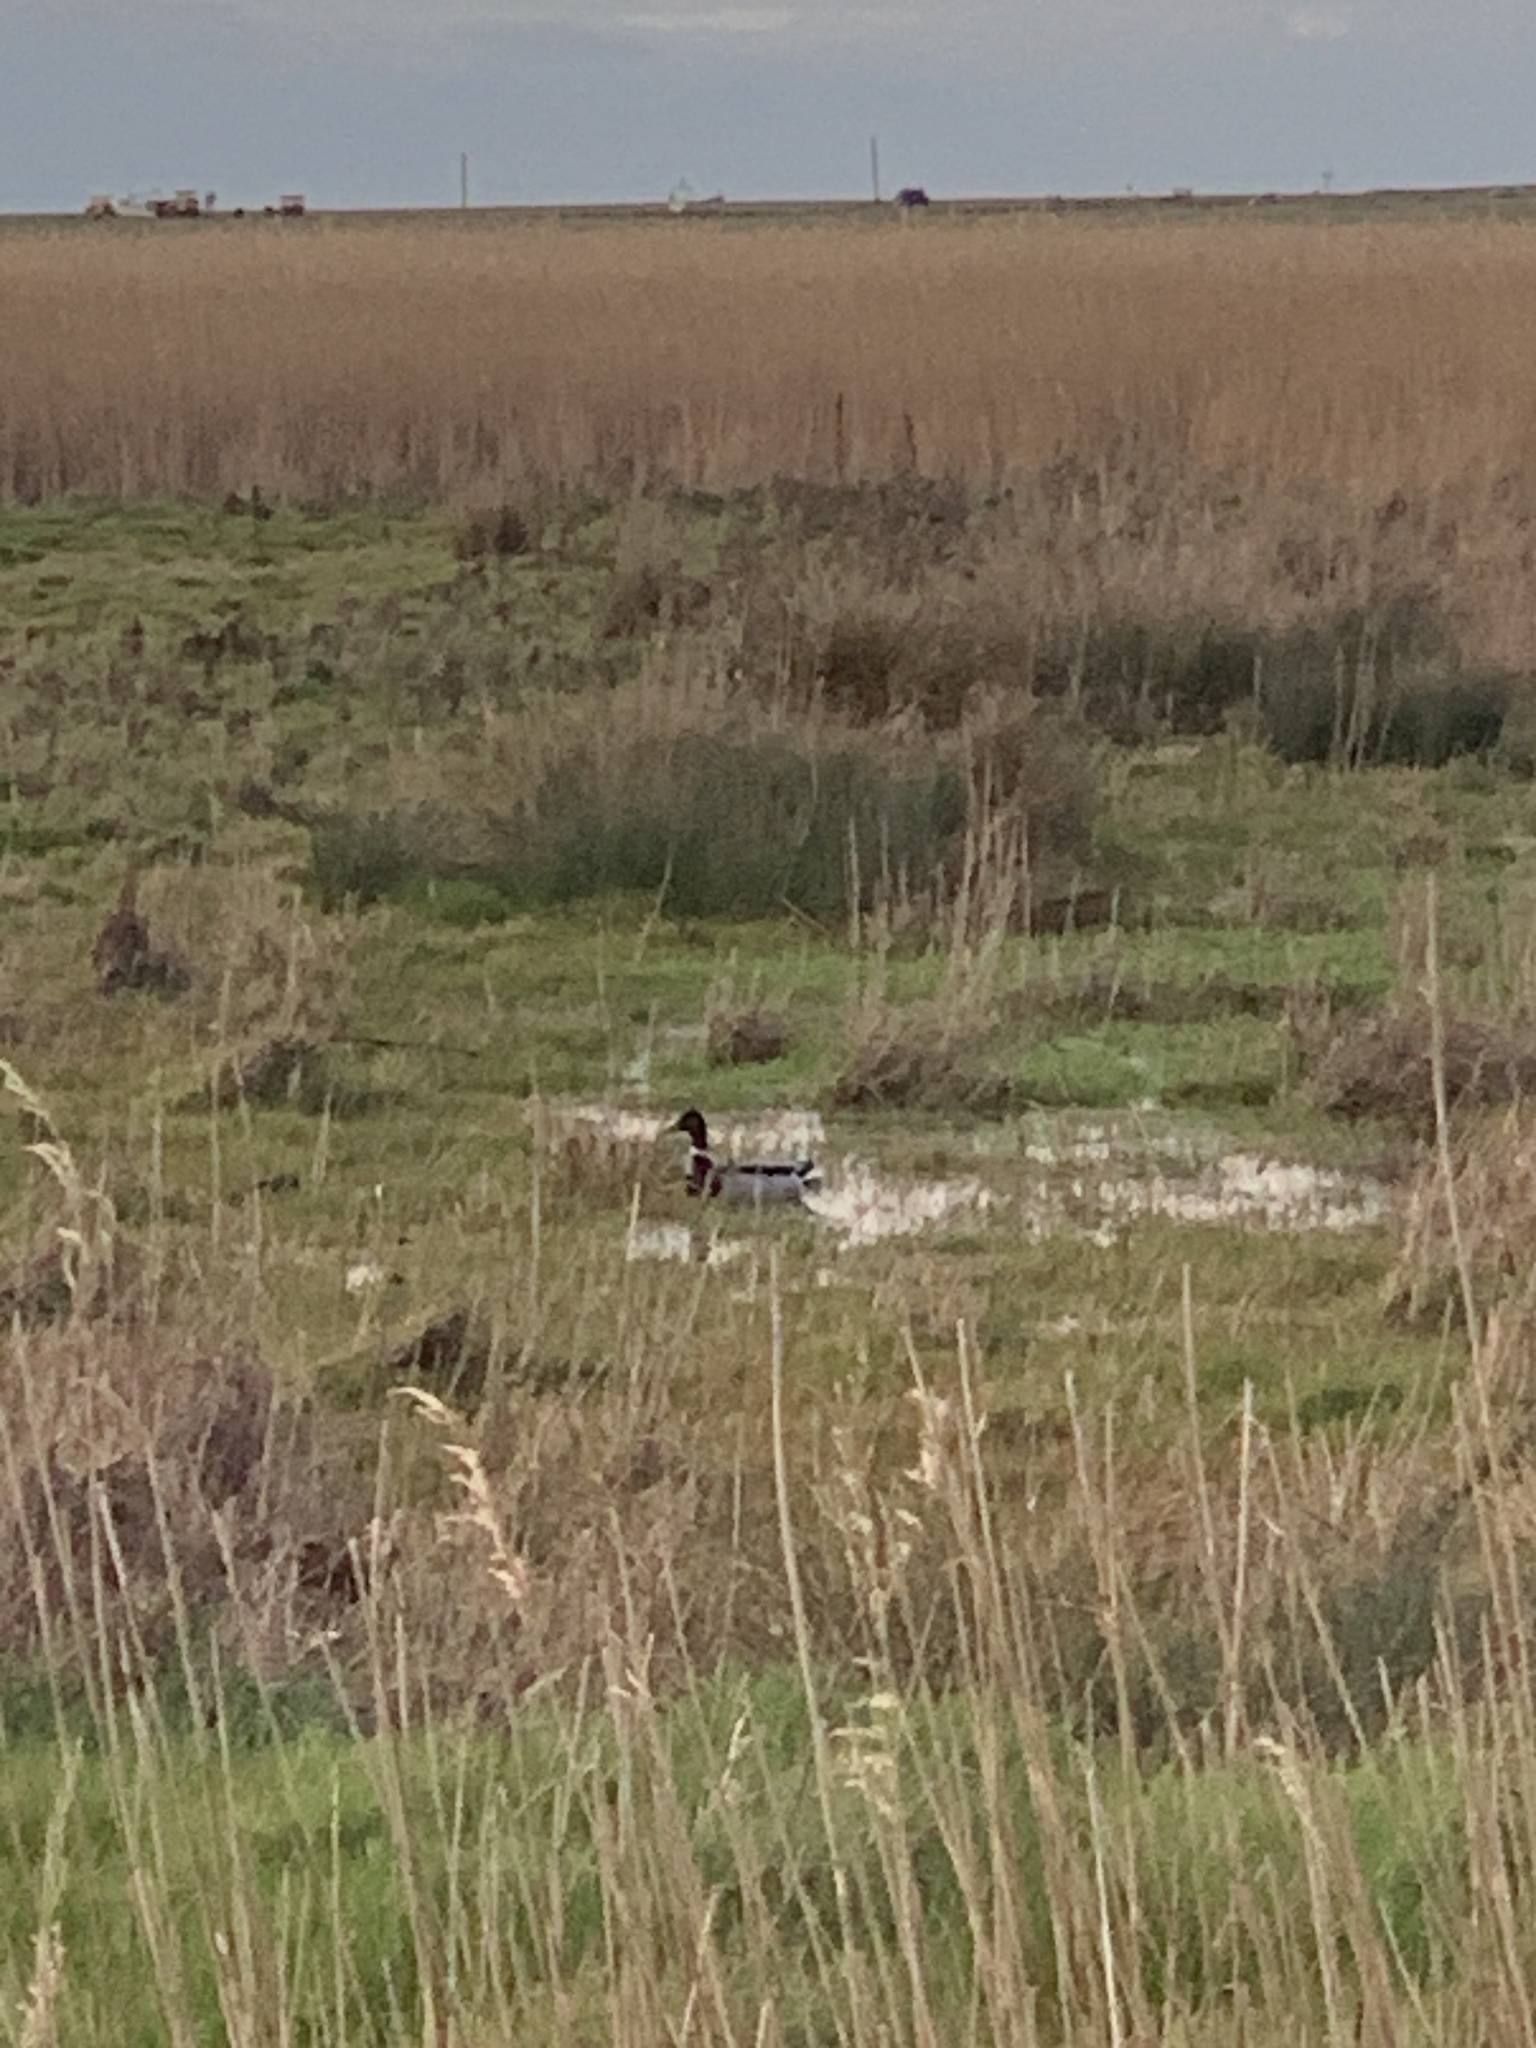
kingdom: Animalia
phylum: Chordata
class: Aves
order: Anseriformes
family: Anatidae
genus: Anas
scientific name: Anas platyrhynchos
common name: Mallard
